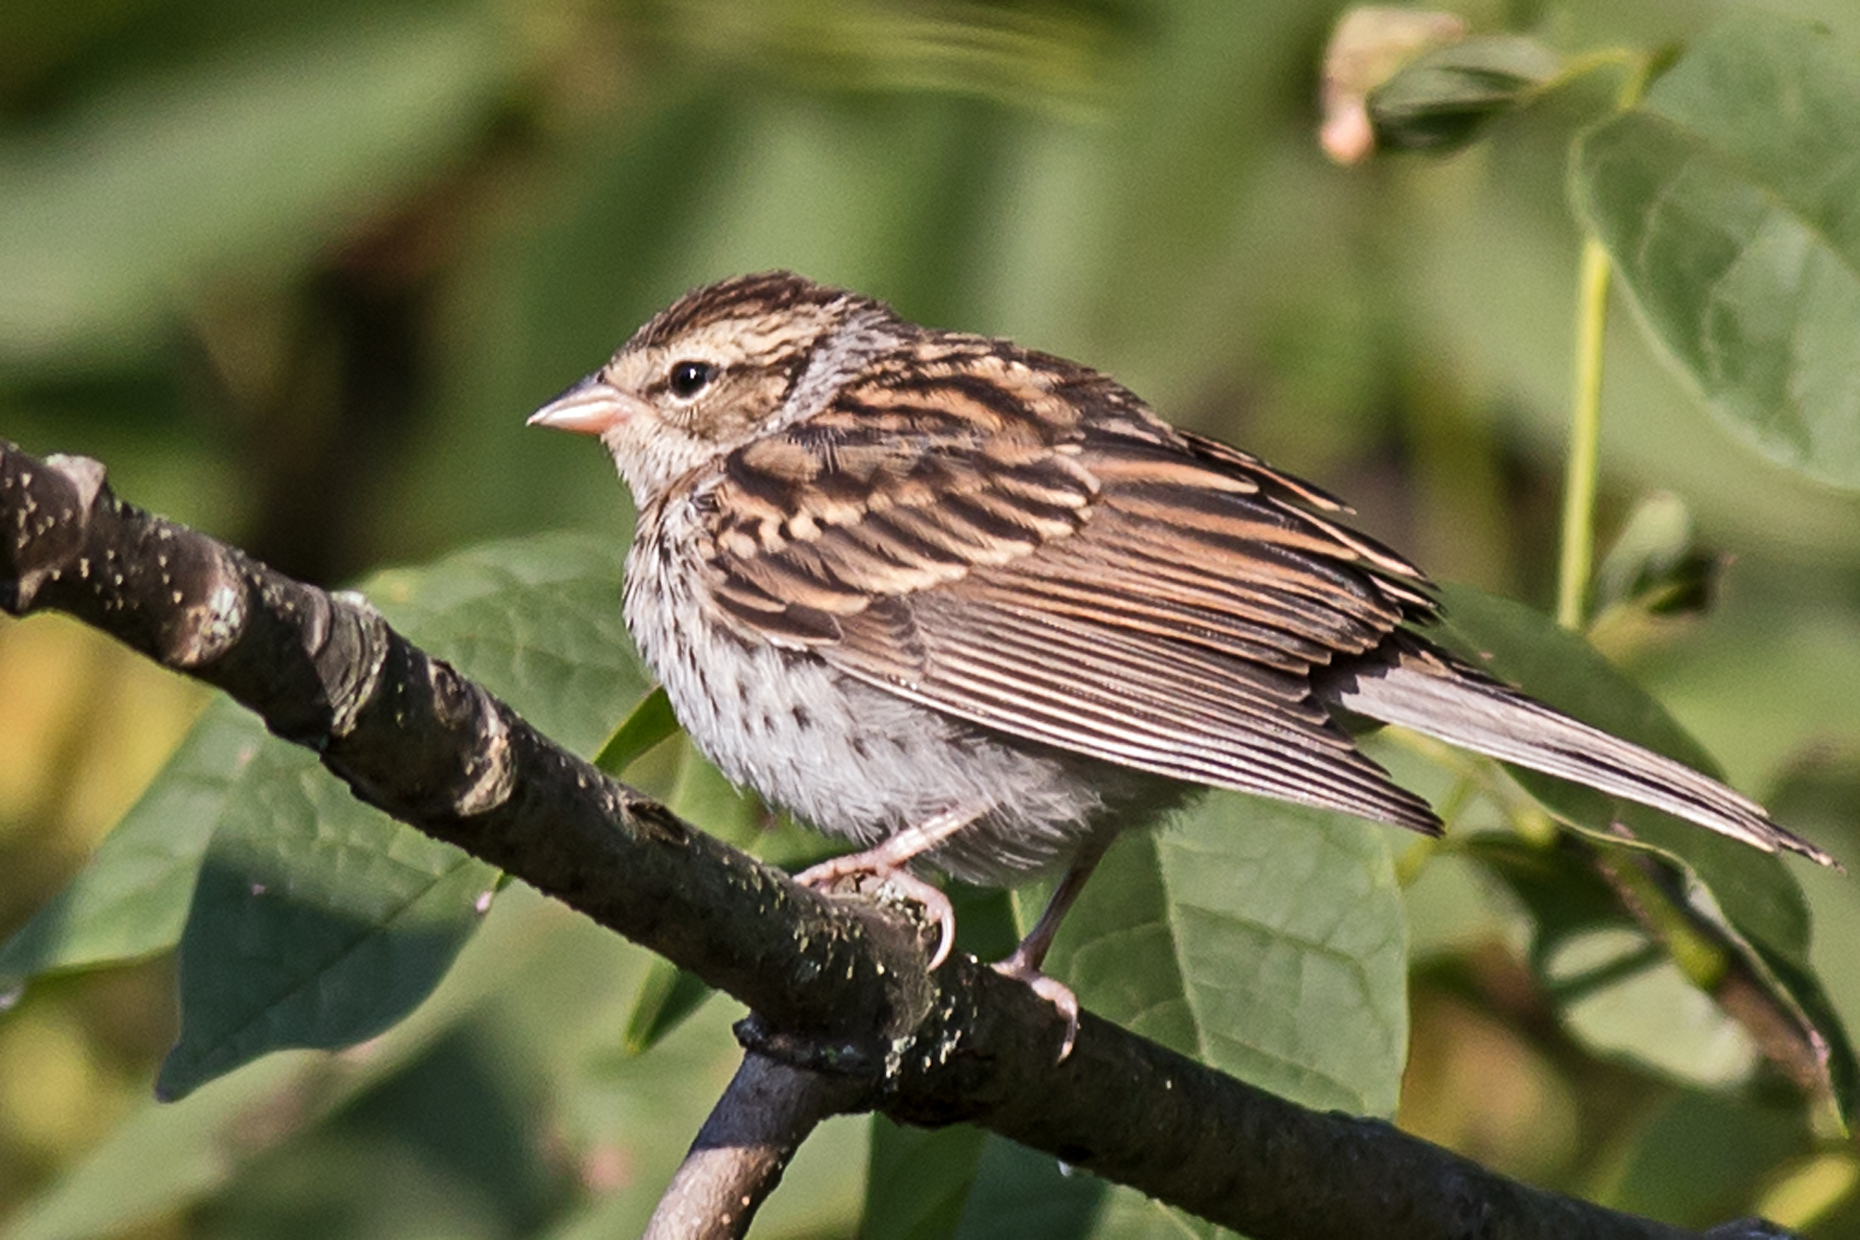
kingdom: Animalia
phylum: Chordata
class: Aves
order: Passeriformes
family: Passerellidae
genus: Spizella
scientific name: Spizella passerina
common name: Chipping sparrow
